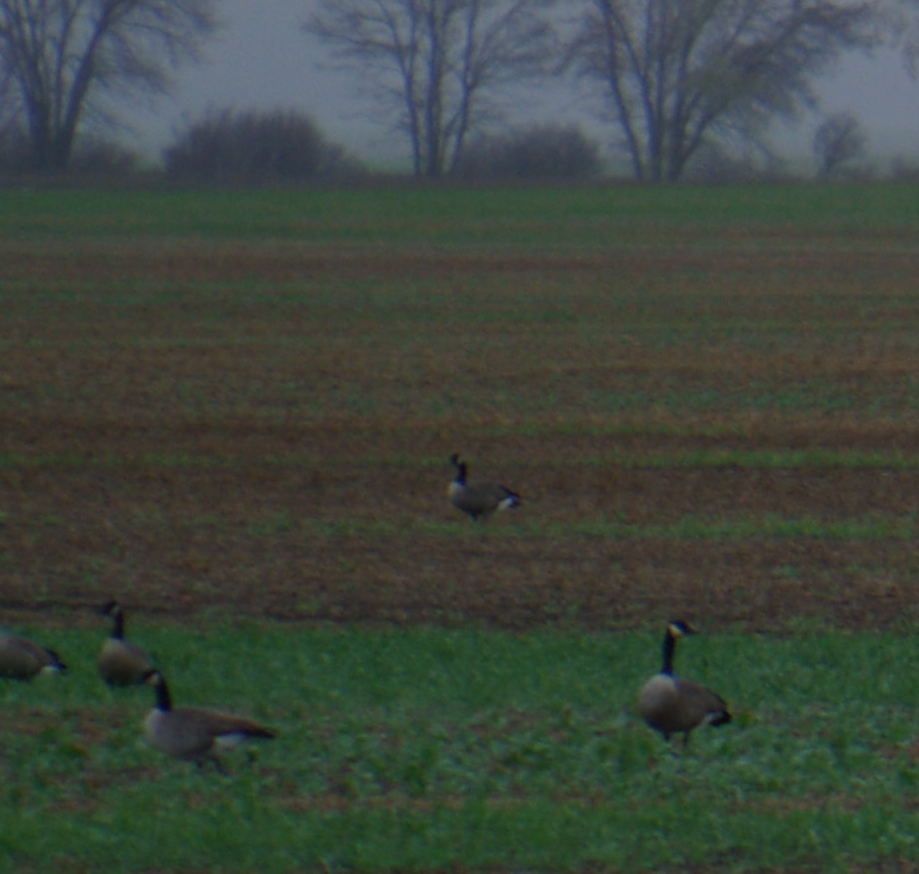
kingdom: Animalia
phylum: Chordata
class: Aves
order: Anseriformes
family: Anatidae
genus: Branta
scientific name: Branta canadensis
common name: Canada goose
